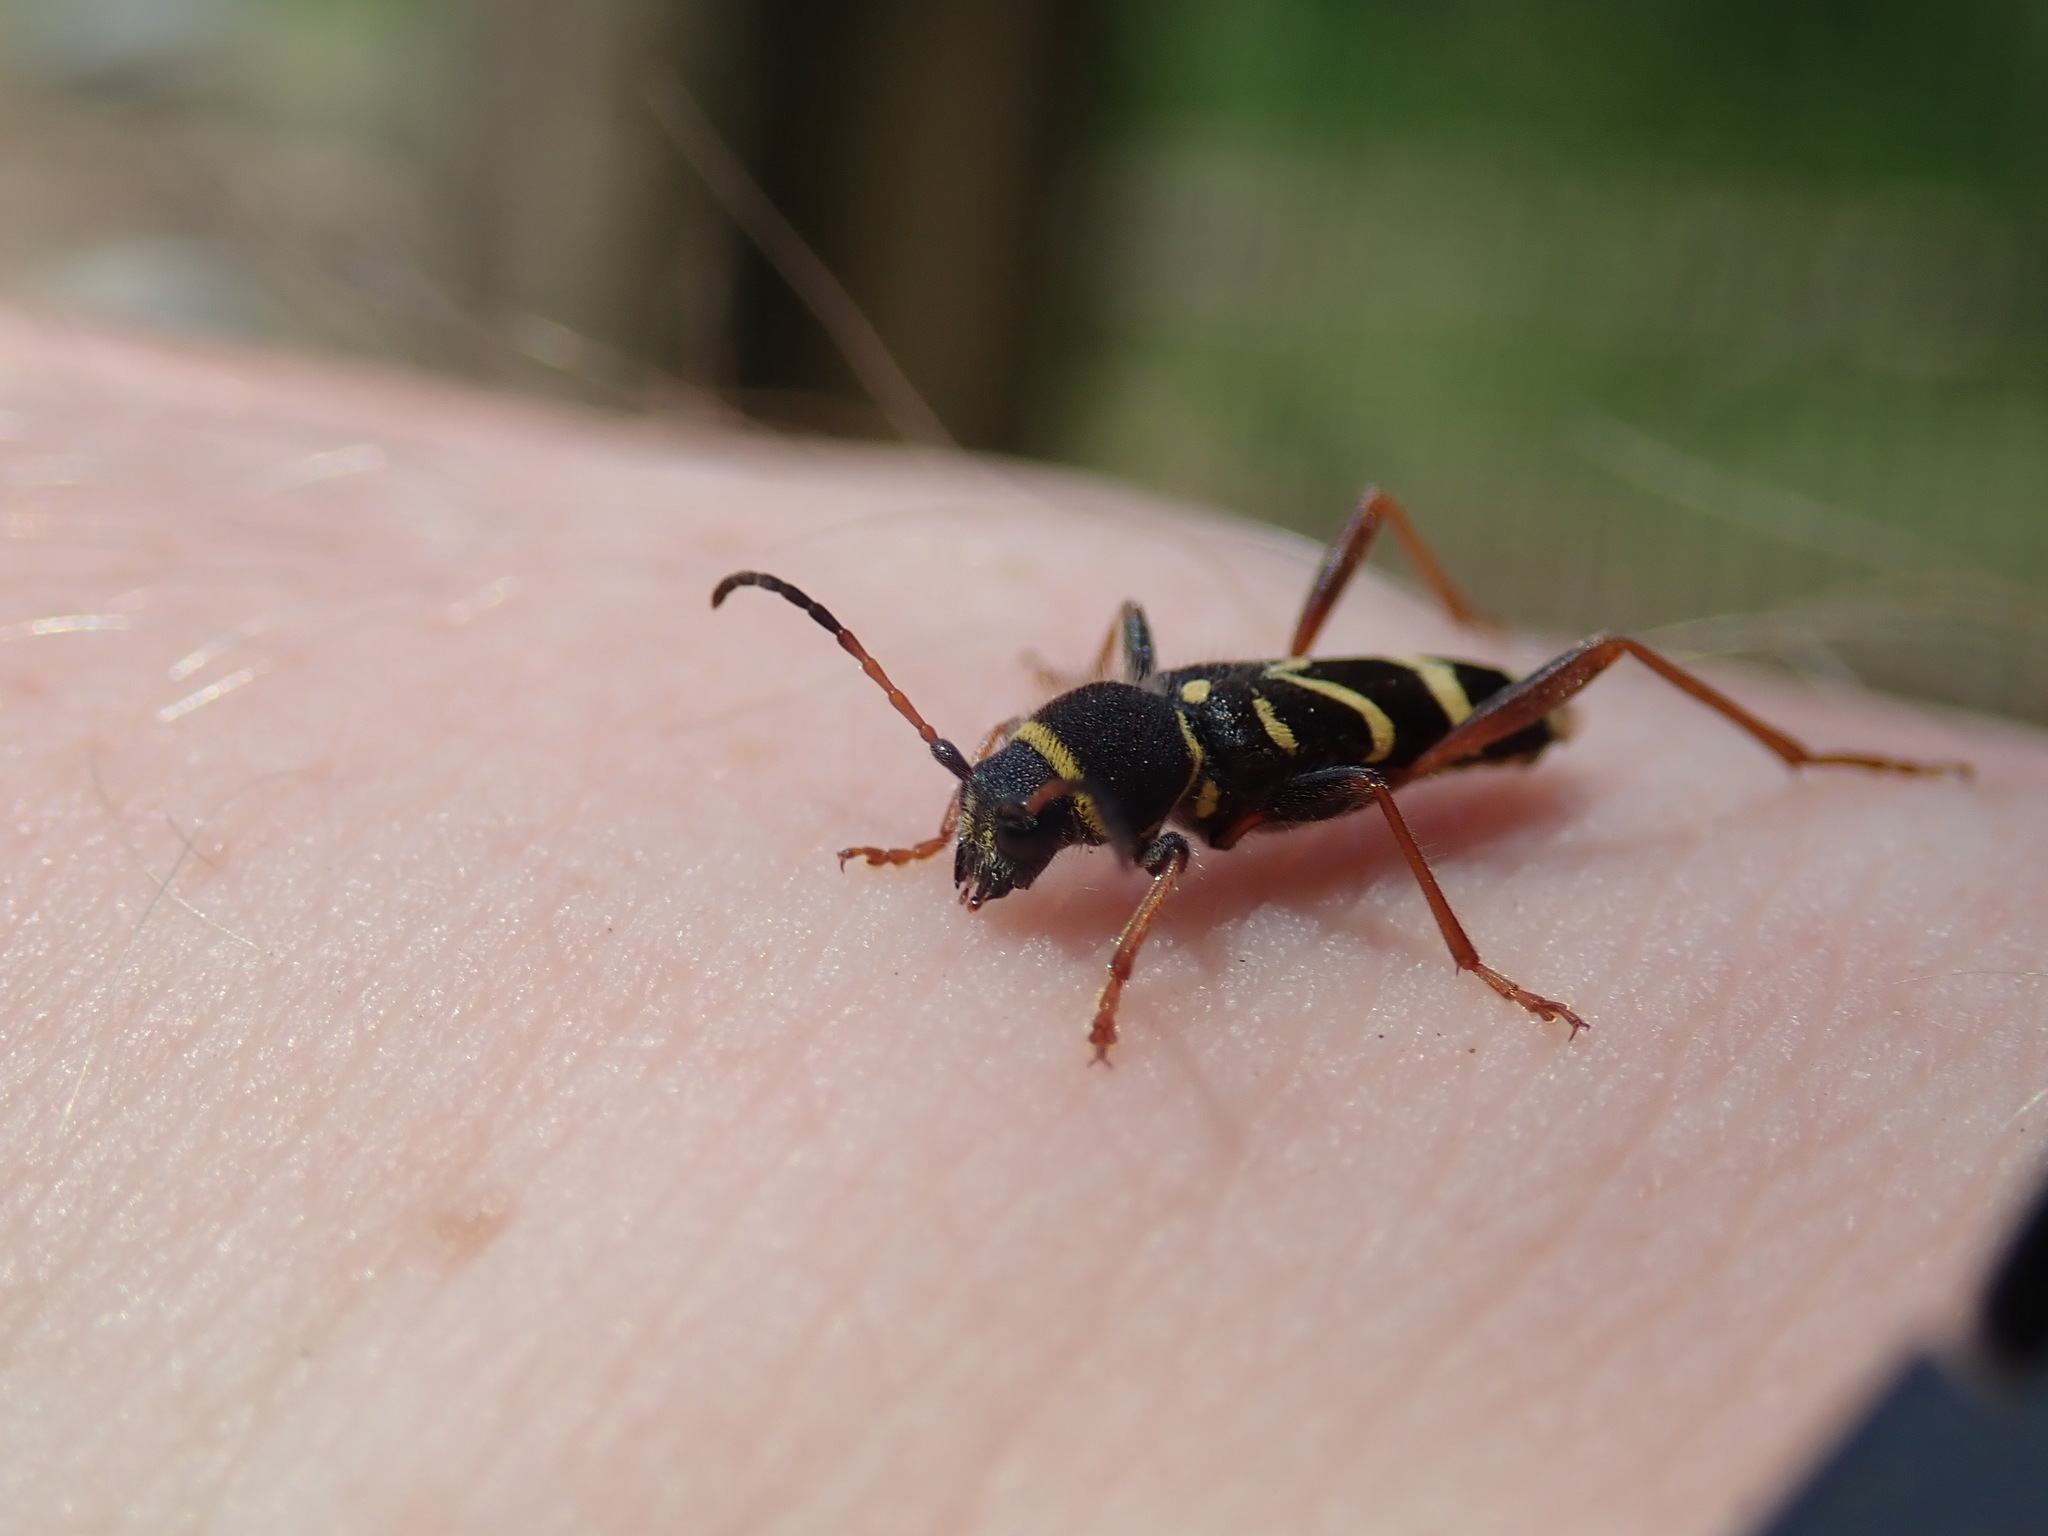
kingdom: Animalia
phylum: Arthropoda
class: Insecta
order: Coleoptera
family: Cerambycidae
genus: Clytus
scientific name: Clytus arietis
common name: Wasp beetle
